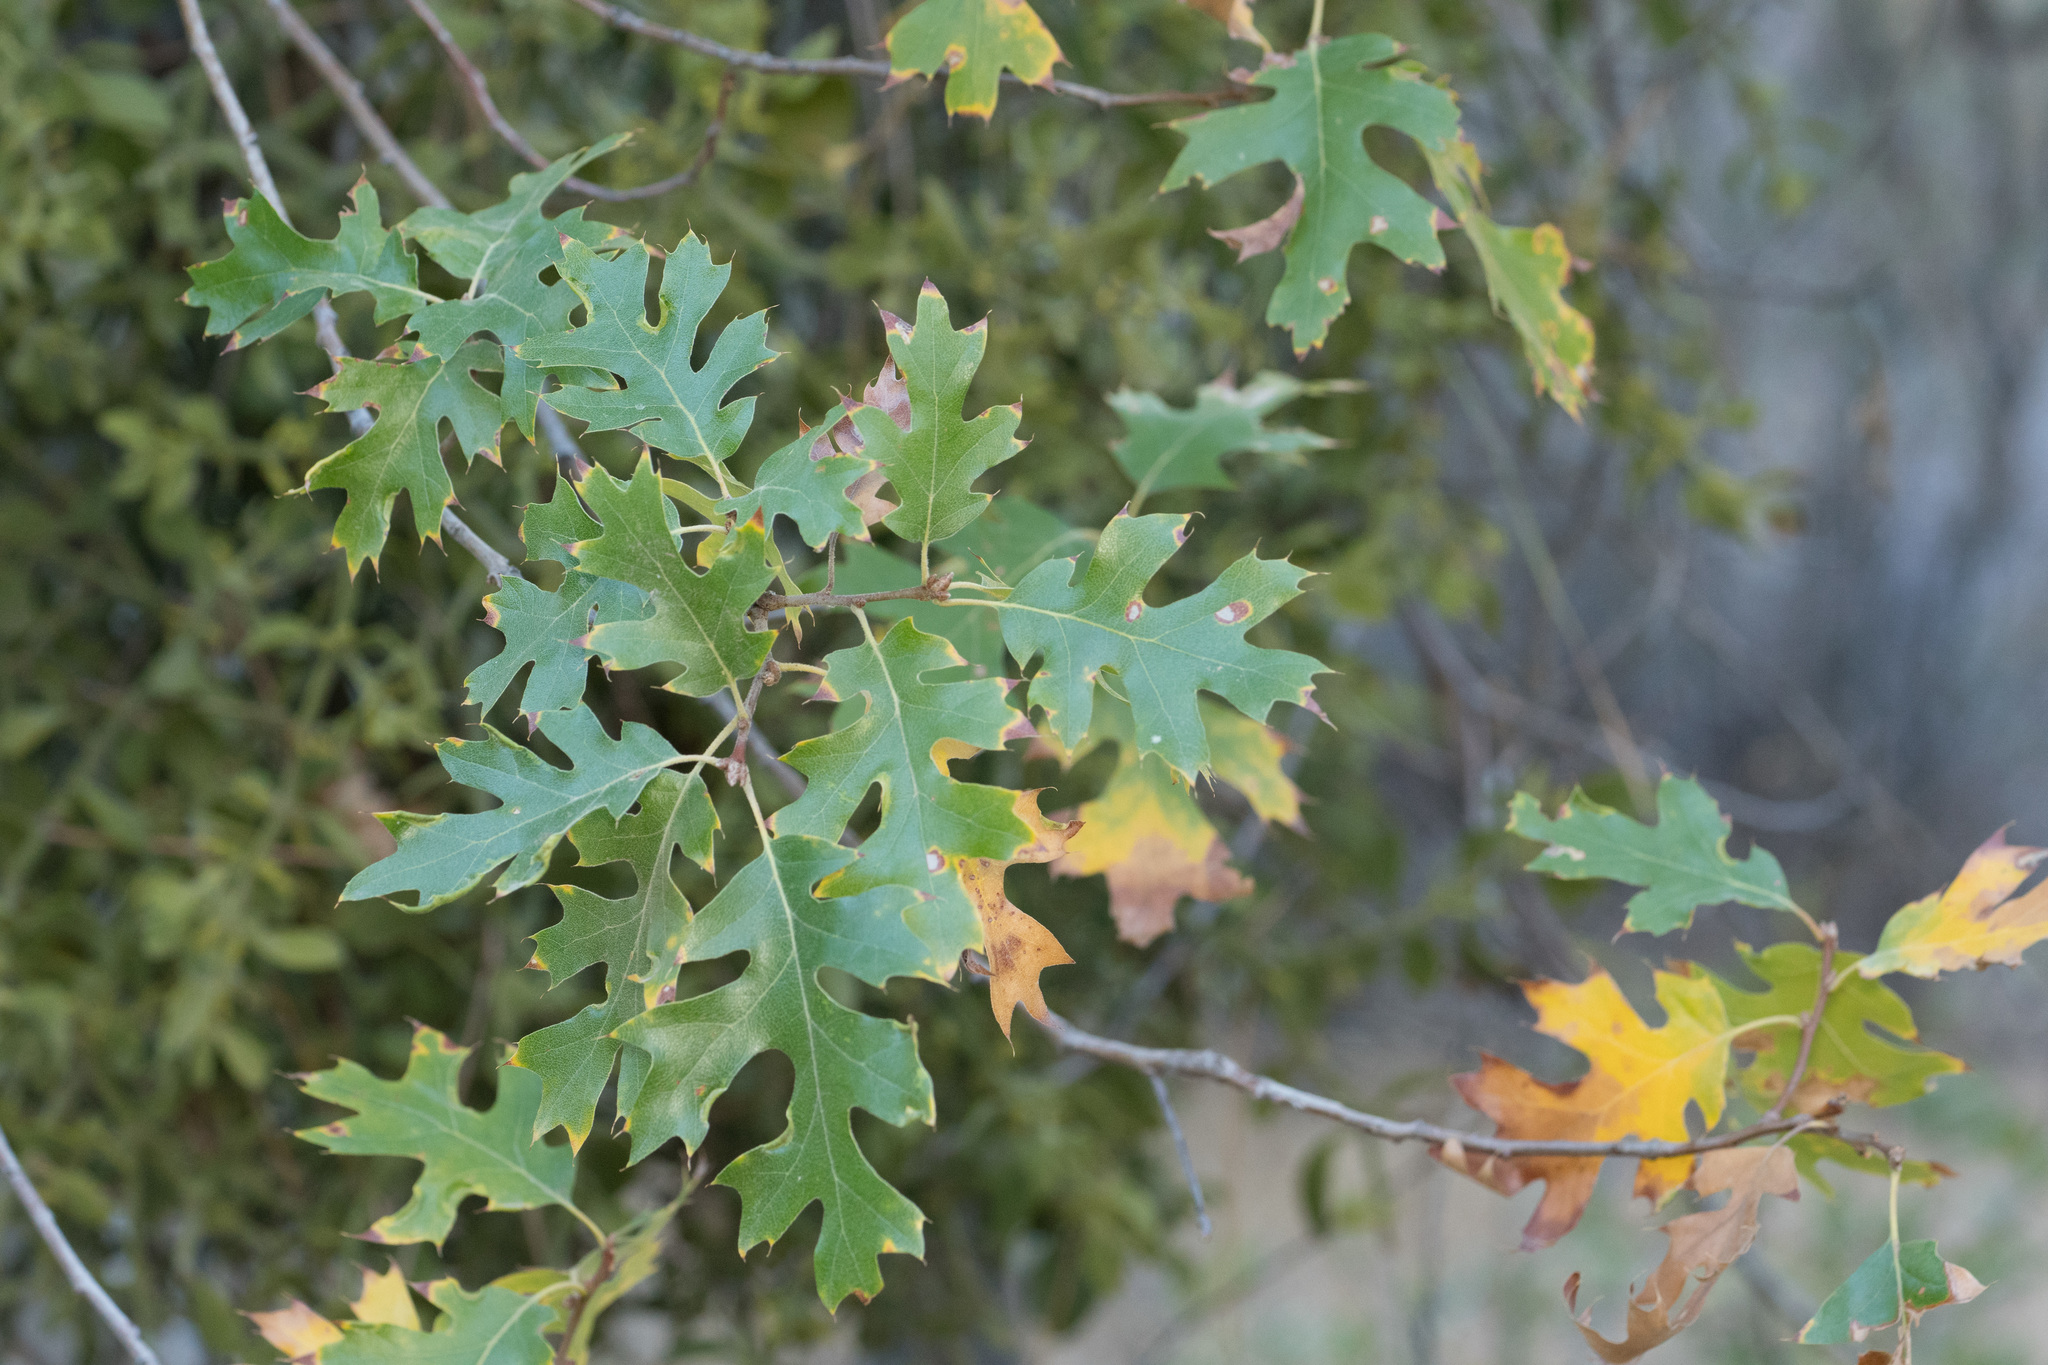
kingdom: Plantae
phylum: Tracheophyta
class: Magnoliopsida
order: Fagales
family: Fagaceae
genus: Quercus
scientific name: Quercus kelloggii
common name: California black oak
